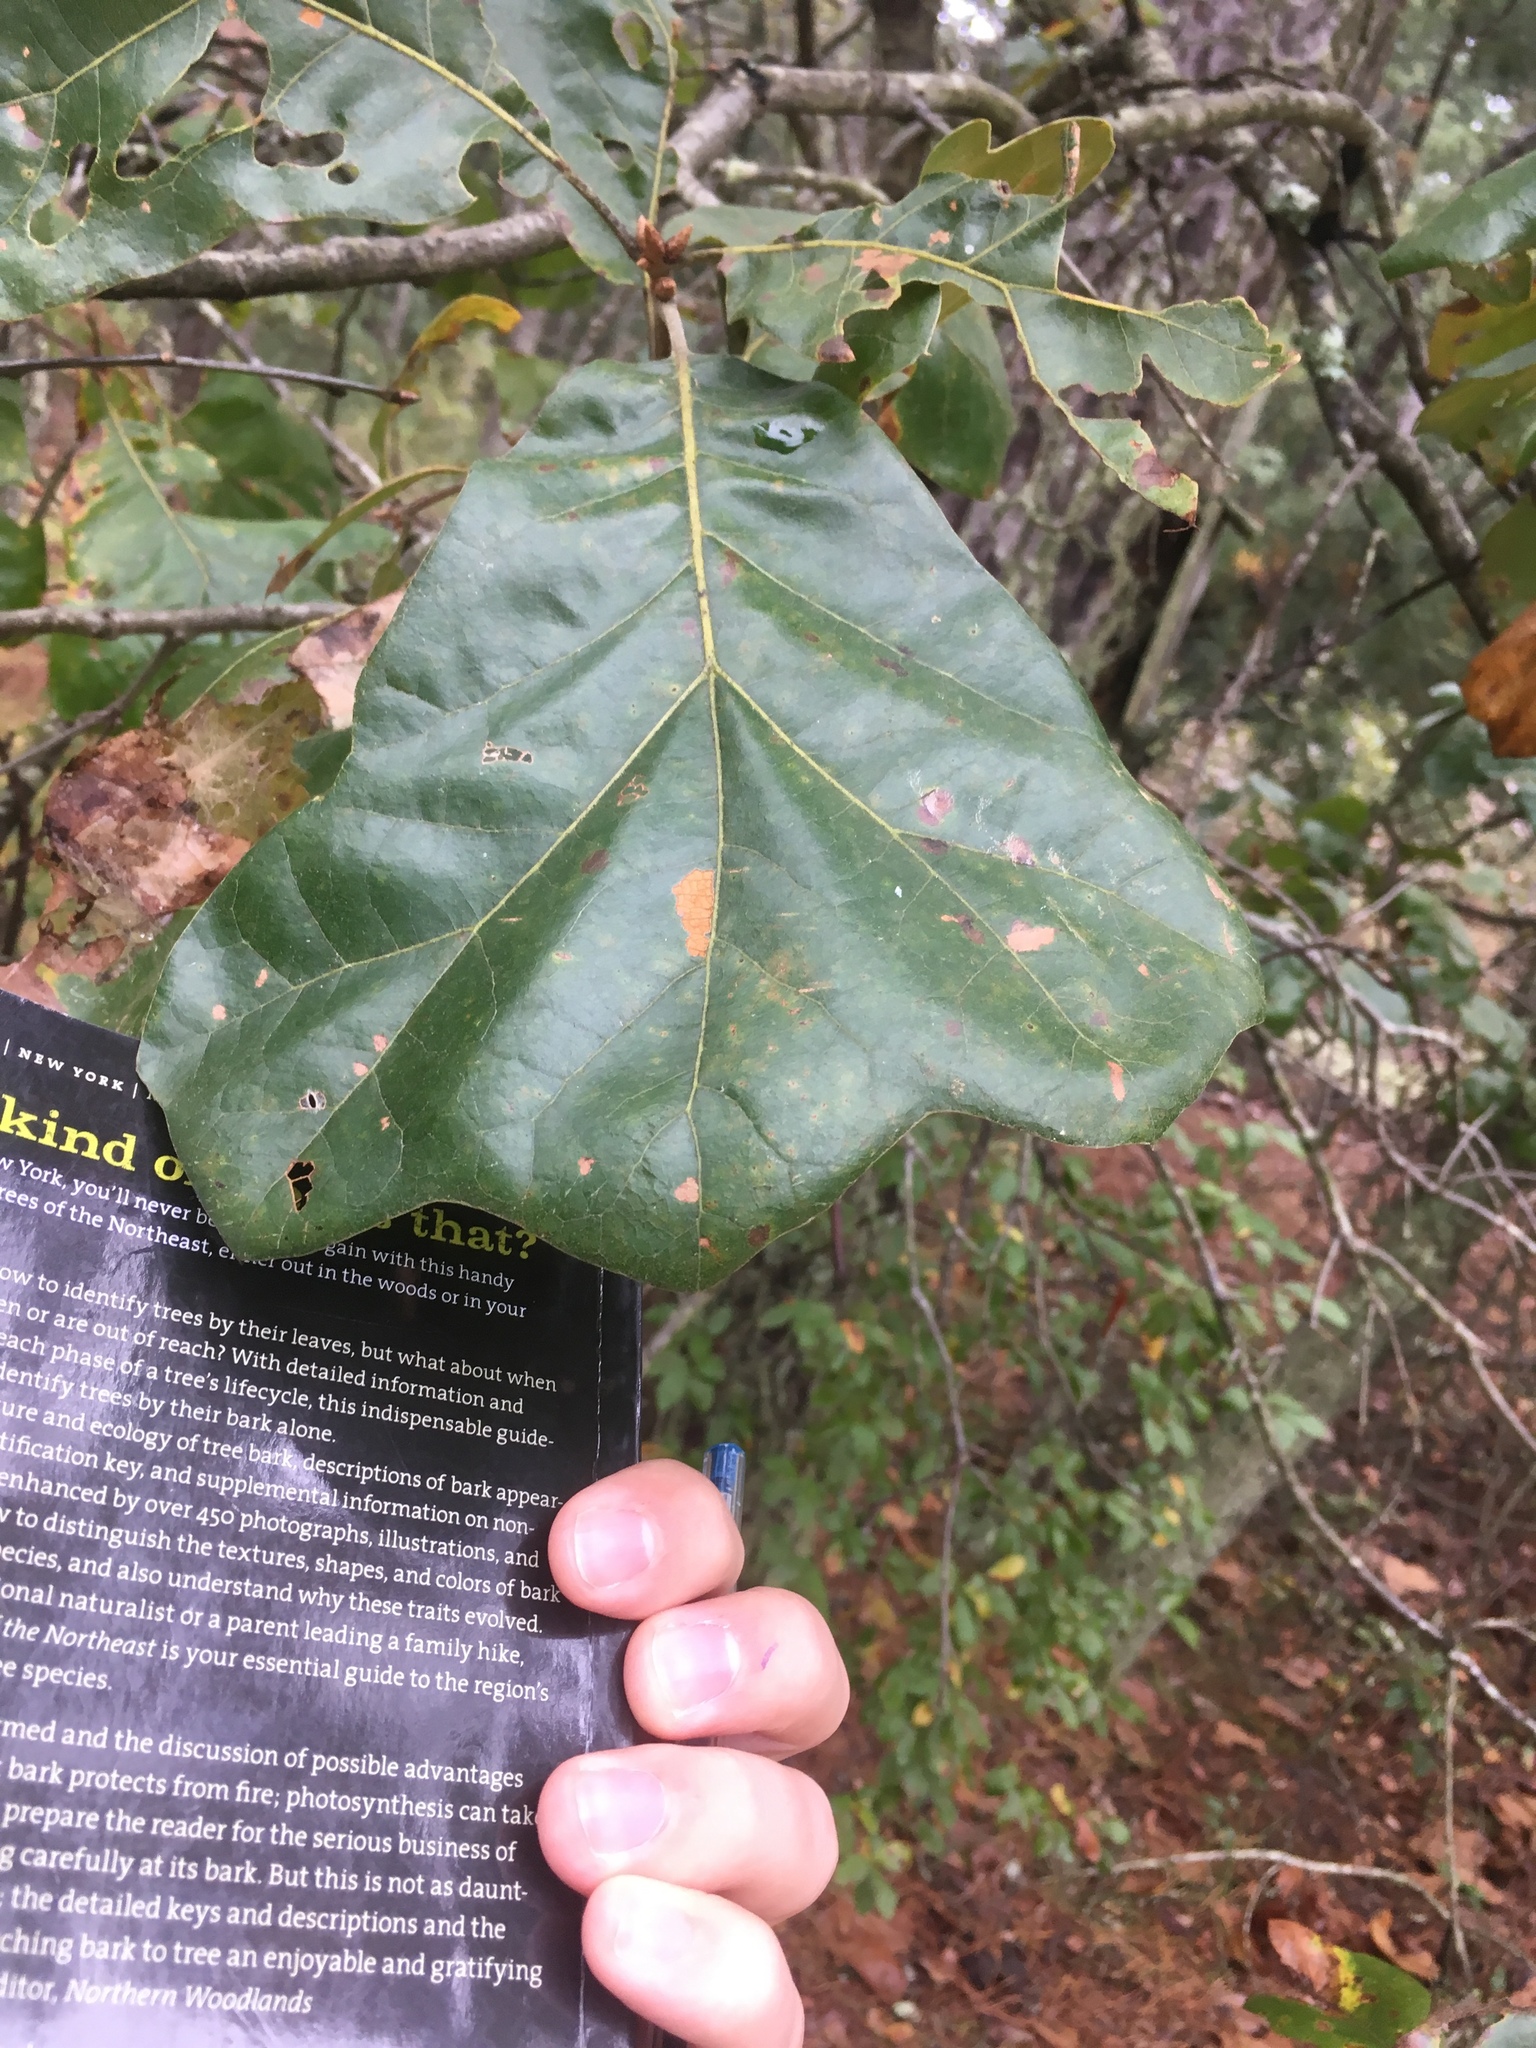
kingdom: Plantae
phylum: Tracheophyta
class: Magnoliopsida
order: Fagales
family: Fagaceae
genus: Quercus
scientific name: Quercus marilandica
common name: Blackjack oak
